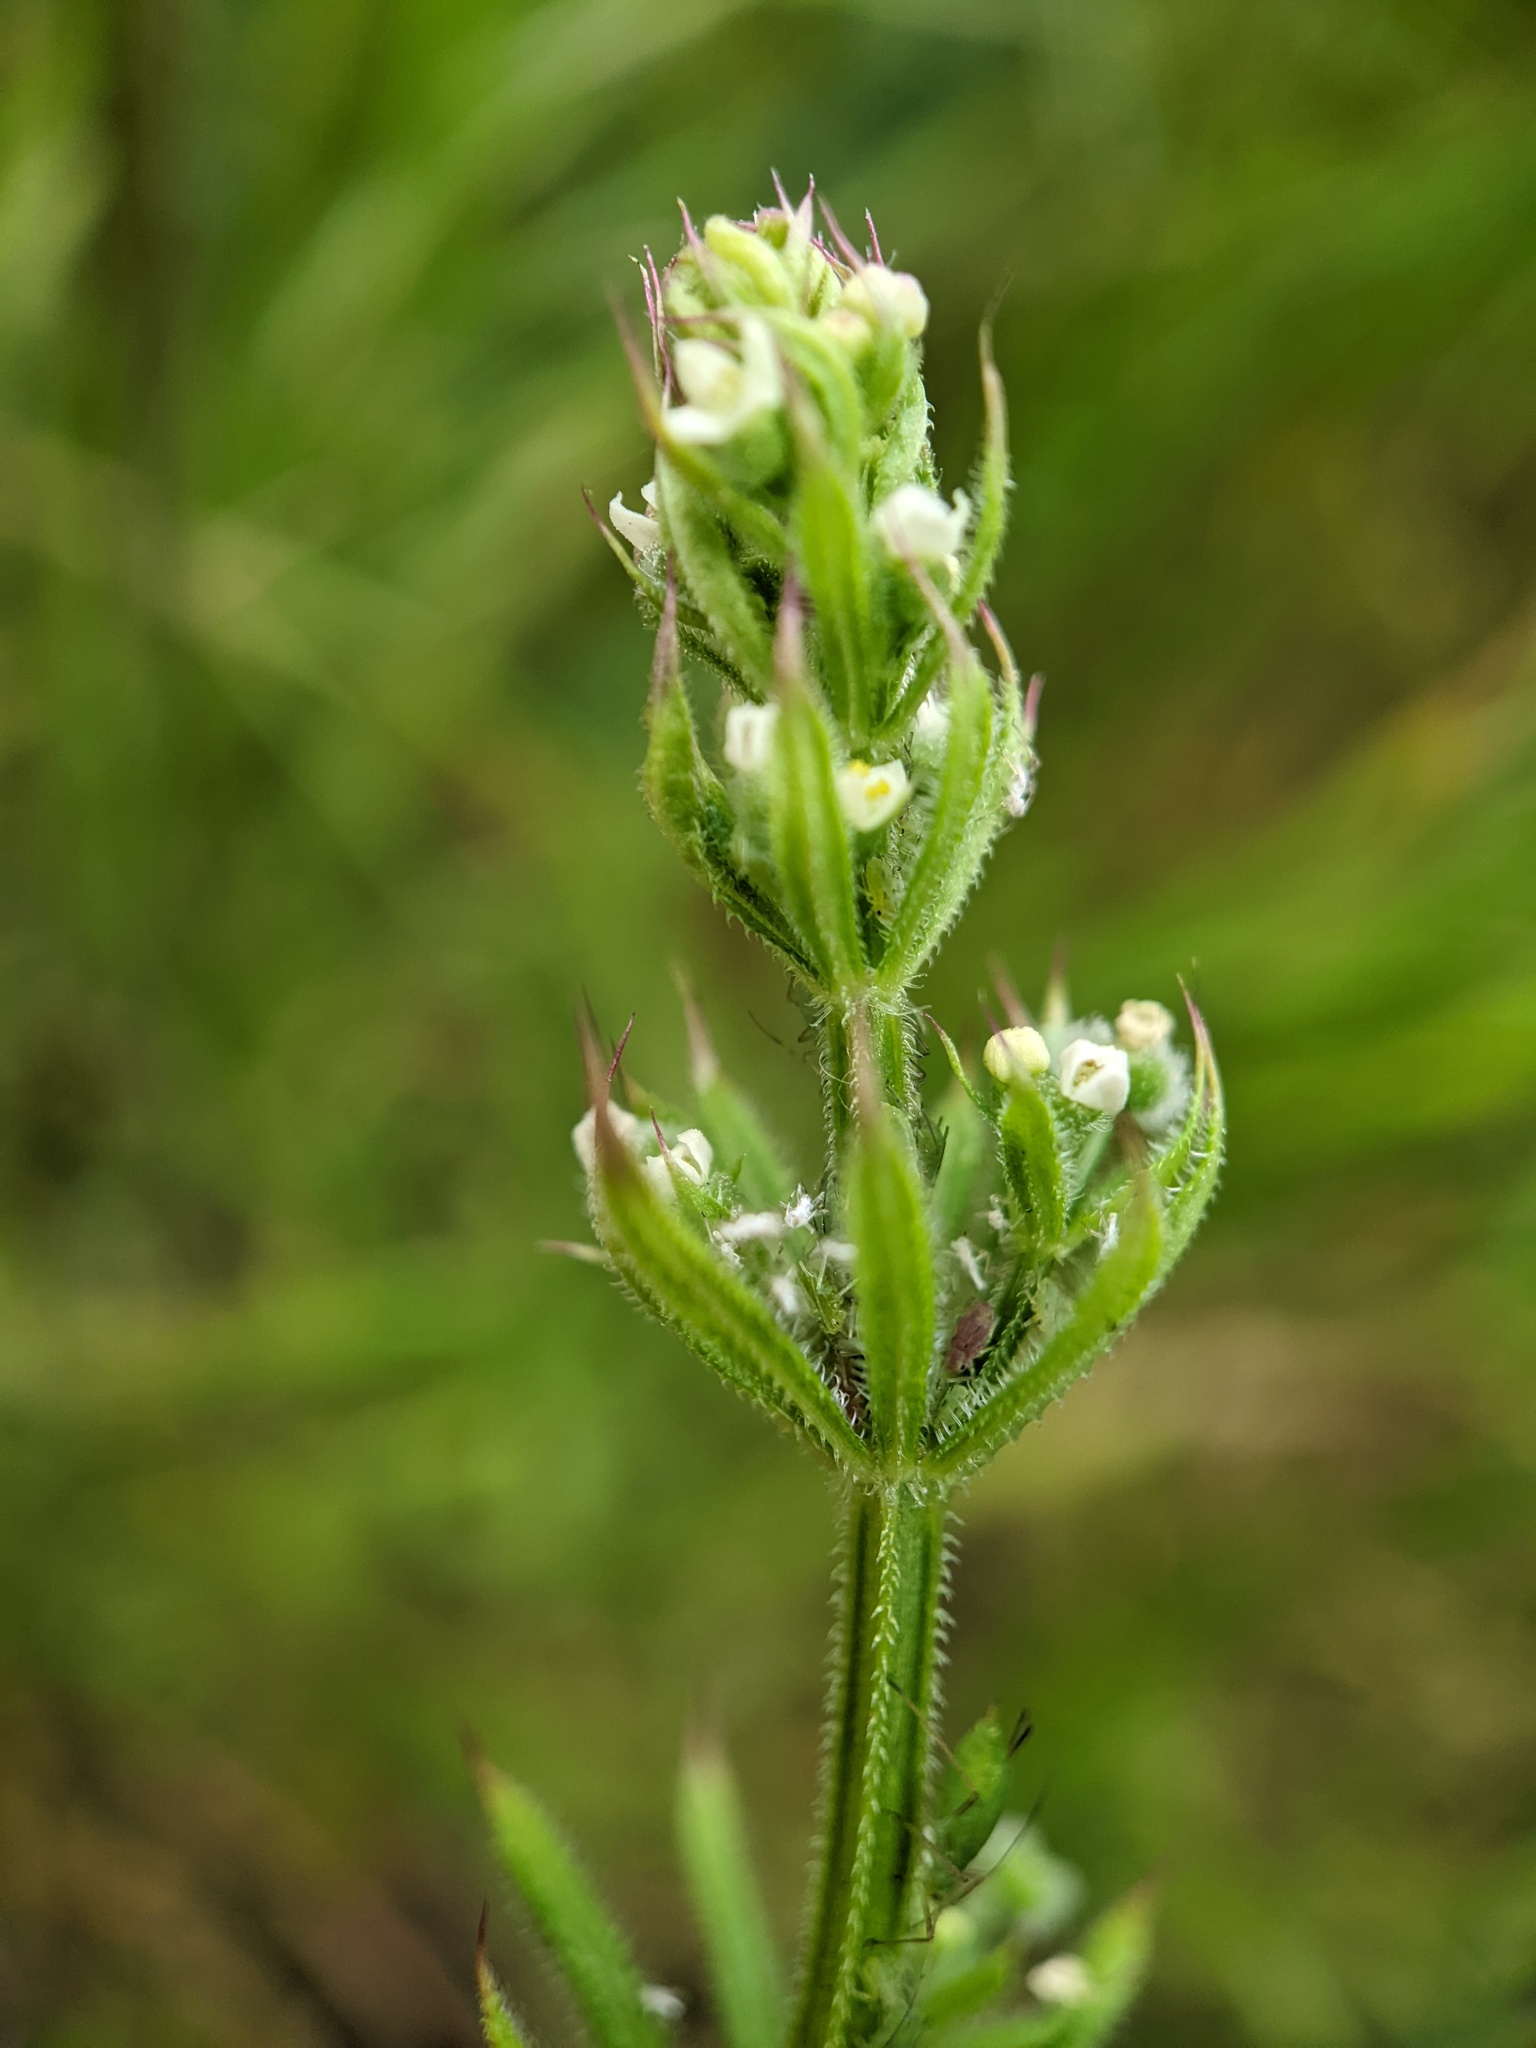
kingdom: Plantae
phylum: Tracheophyta
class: Magnoliopsida
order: Gentianales
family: Rubiaceae
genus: Galium
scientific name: Galium aparine
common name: Cleavers
